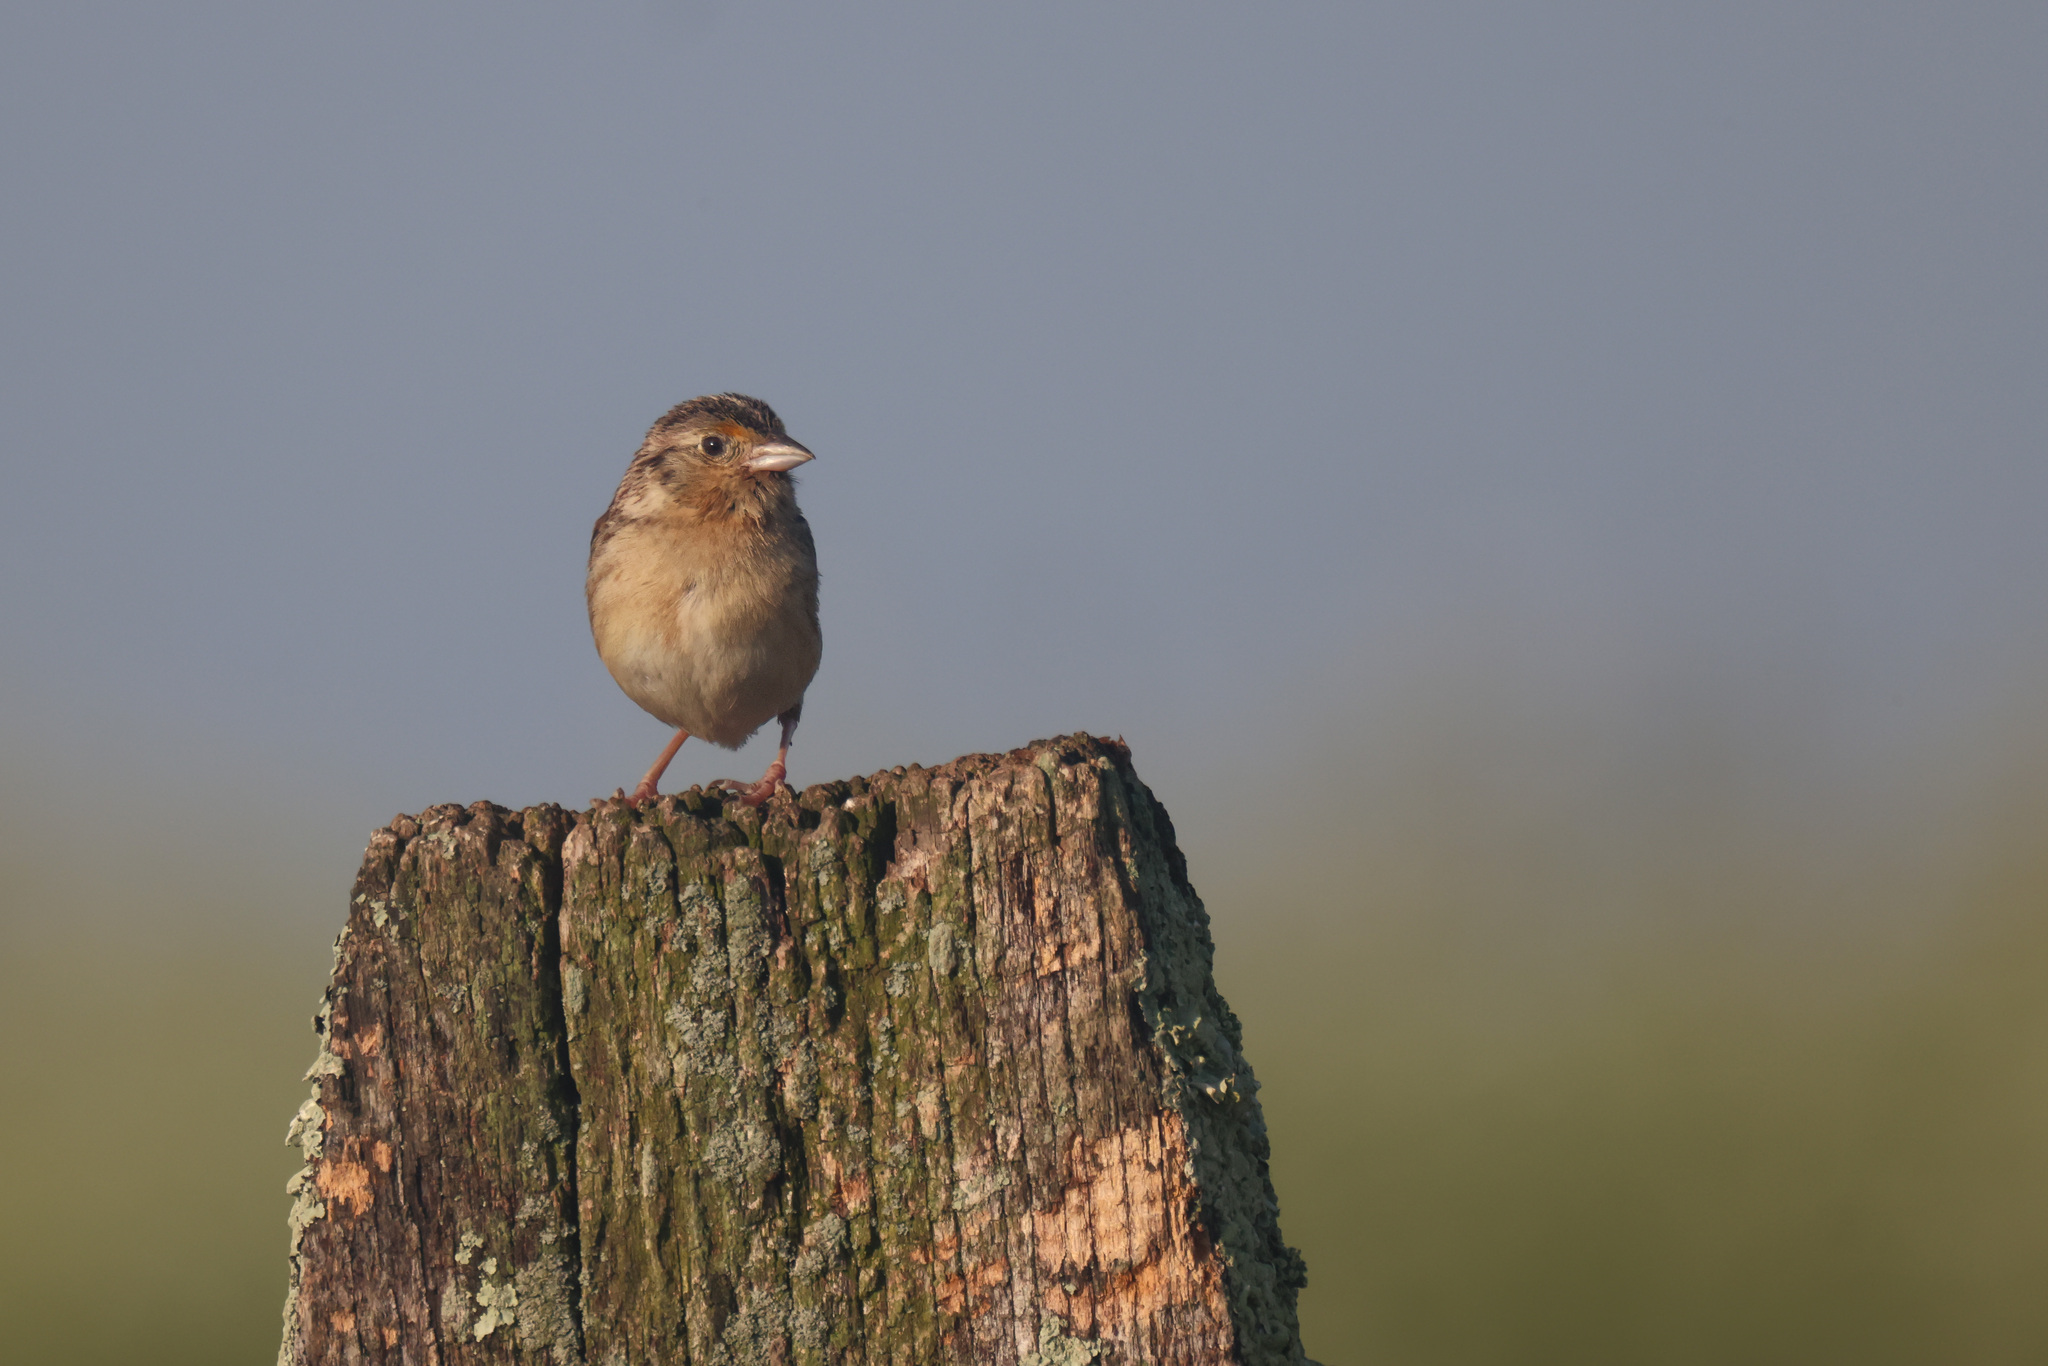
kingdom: Animalia
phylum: Chordata
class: Aves
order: Passeriformes
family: Passerellidae
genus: Ammodramus
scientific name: Ammodramus savannarum
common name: Grasshopper sparrow
